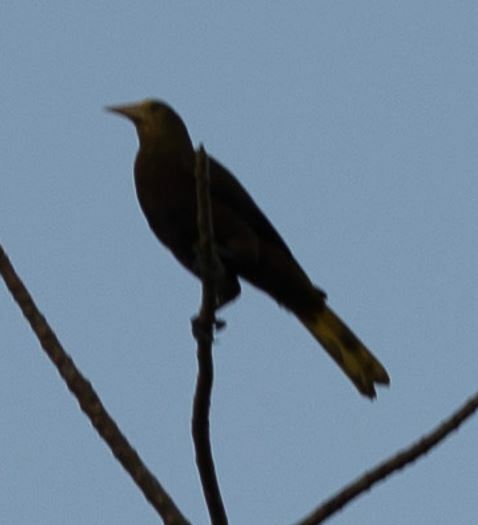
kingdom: Animalia
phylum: Chordata
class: Aves
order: Passeriformes
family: Icteridae
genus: Psarocolius
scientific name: Psarocolius angustifrons
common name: Russet-backed oropendola
